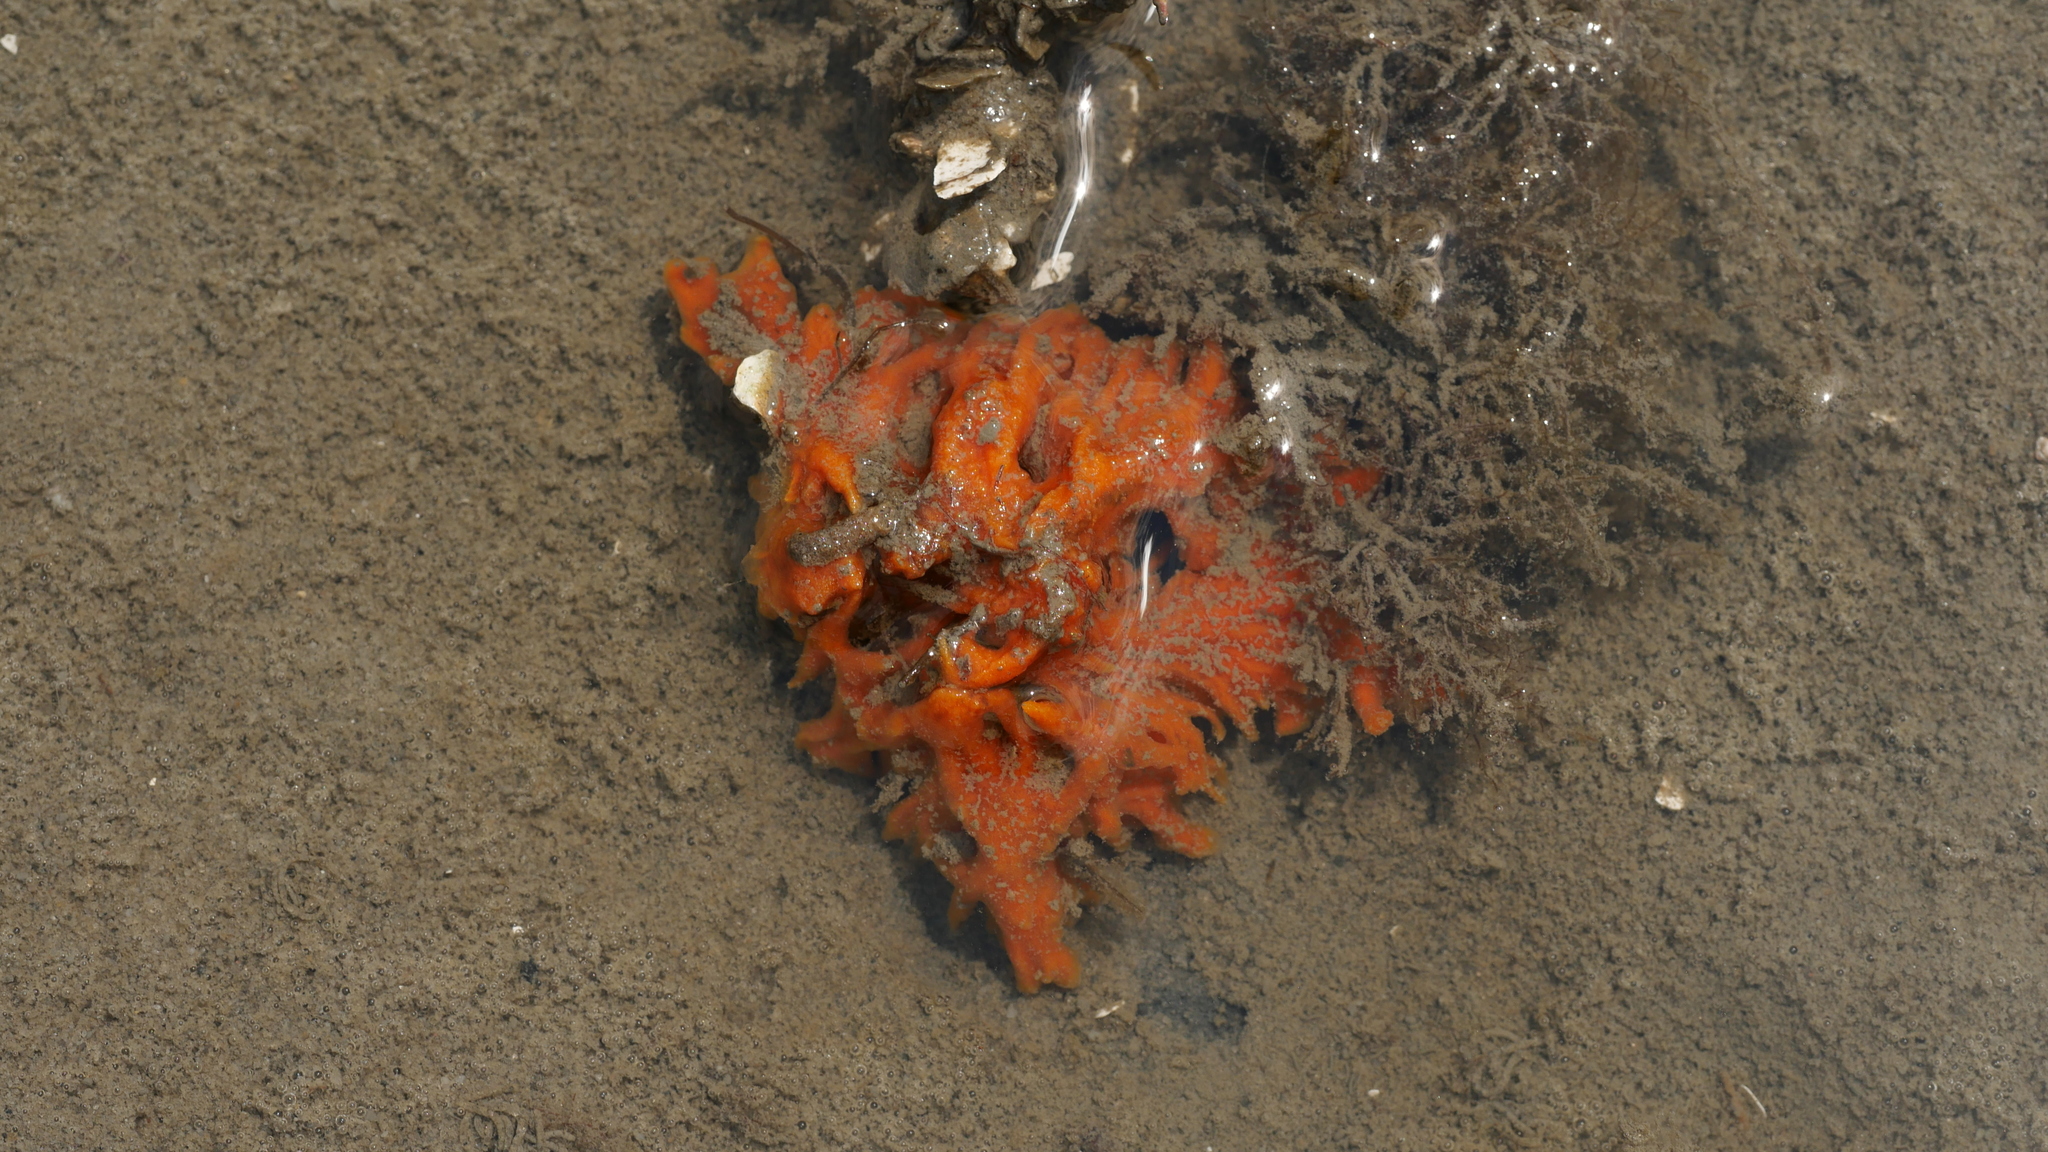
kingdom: Animalia
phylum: Porifera
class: Demospongiae
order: Suberitida
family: Halichondriidae
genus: Hymeniacidon
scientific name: Hymeniacidon heliophila
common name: Diurnal horny sponge
